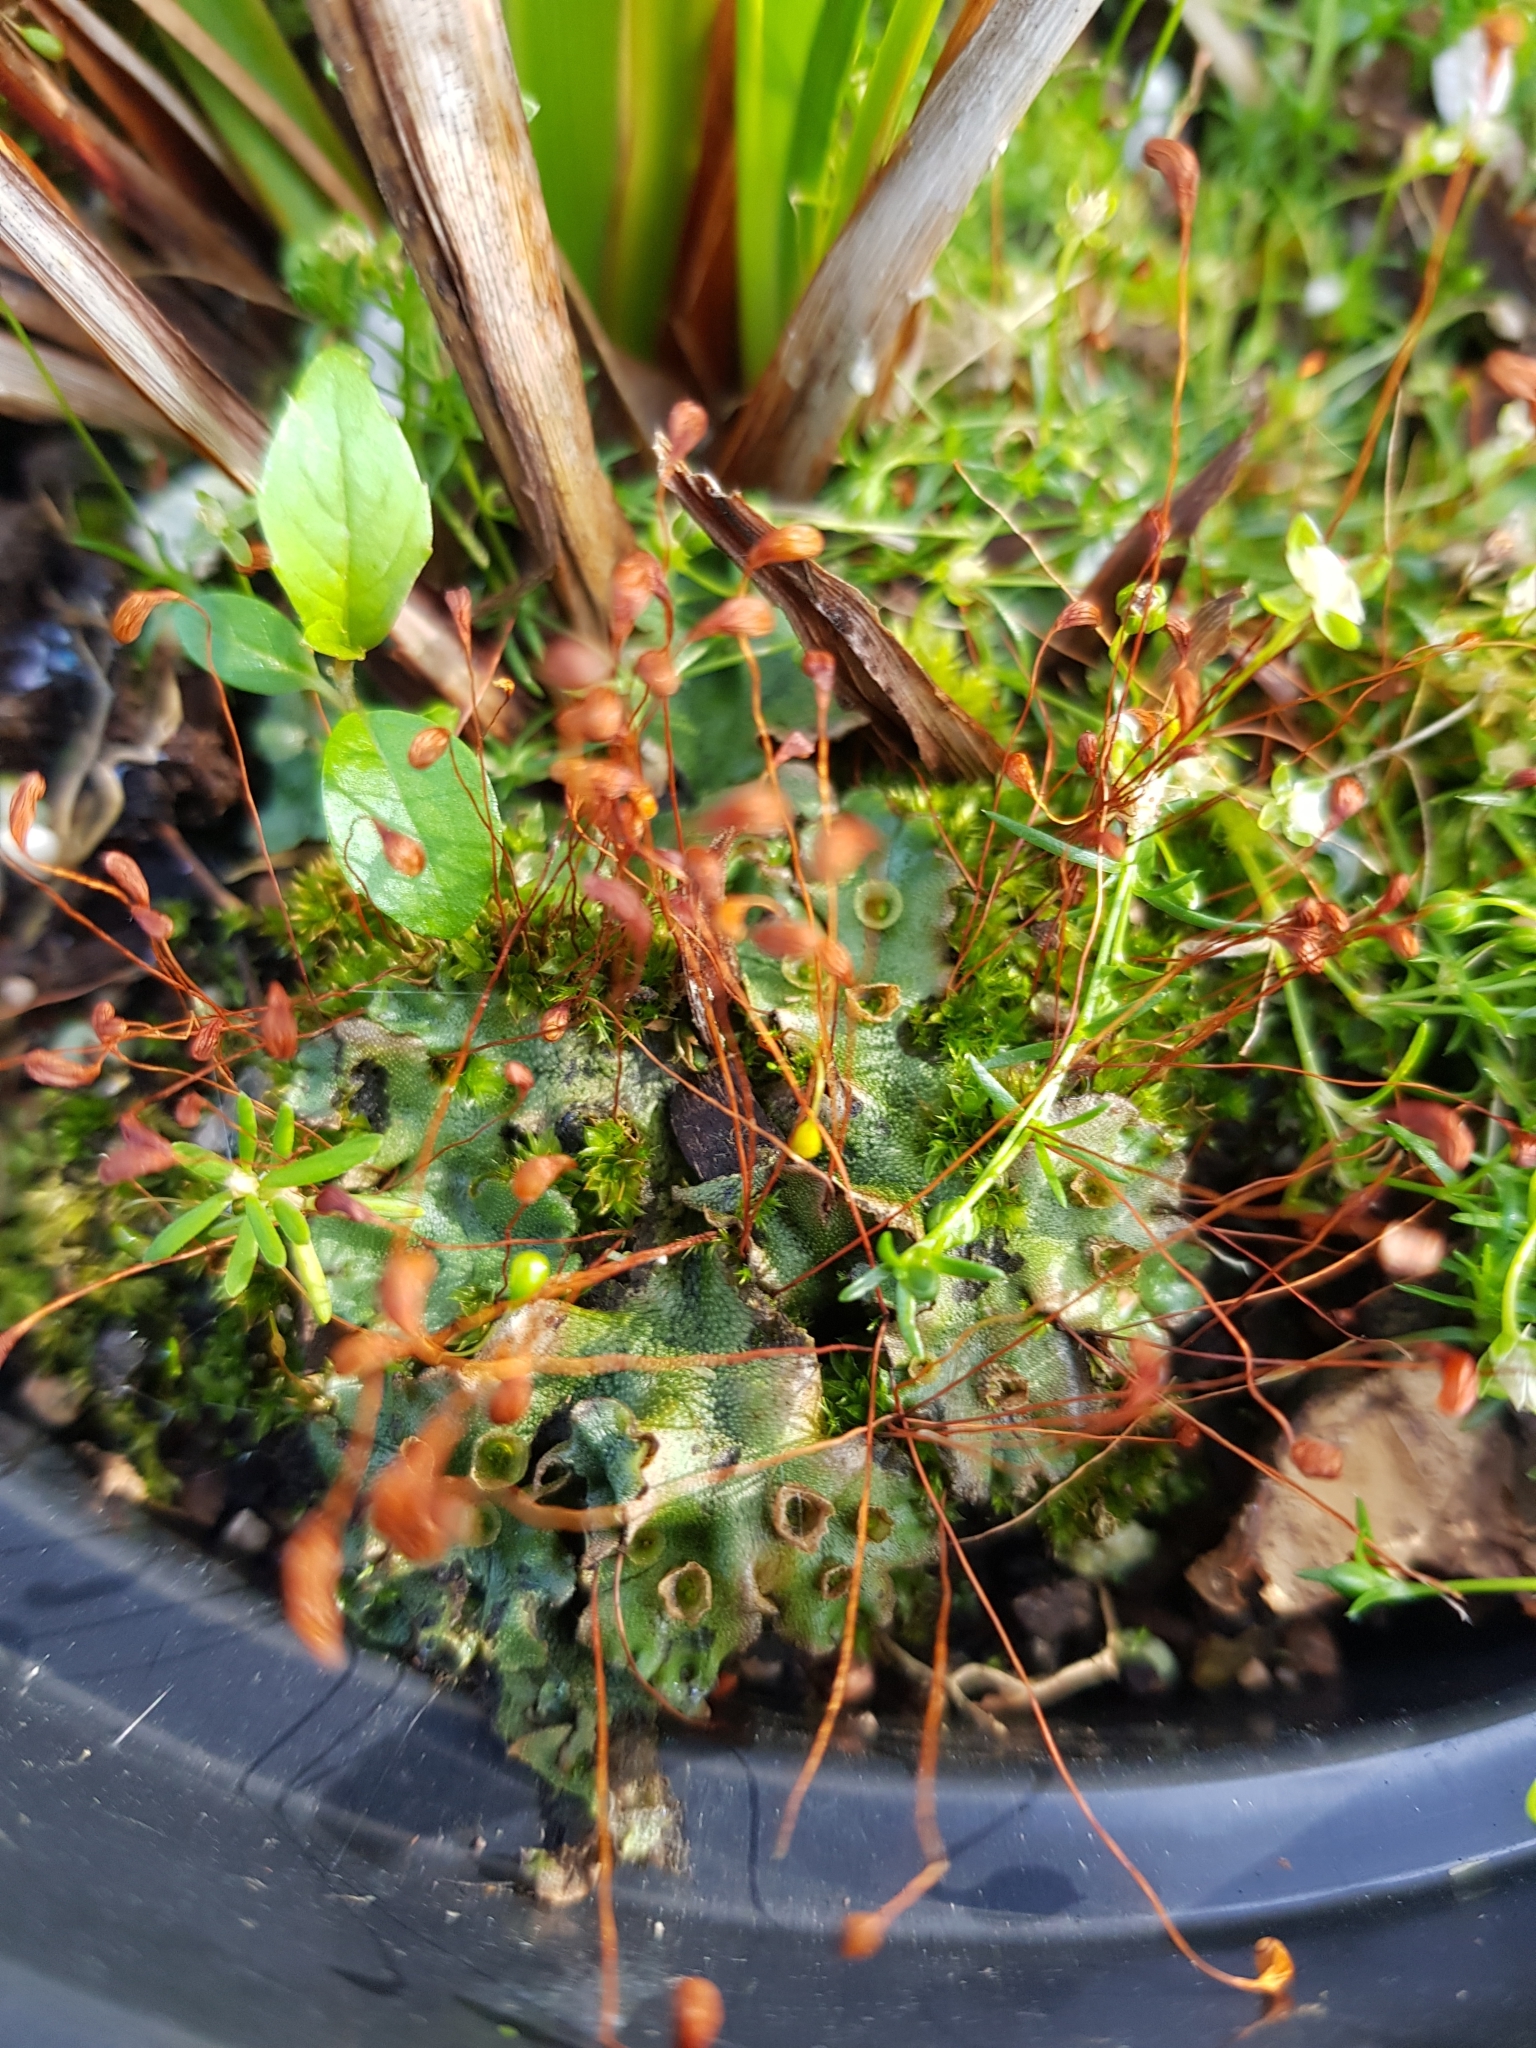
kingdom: Plantae
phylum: Bryophyta
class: Bryopsida
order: Funariales
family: Funariaceae
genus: Funaria
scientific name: Funaria hygrometrica
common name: Common cord moss
